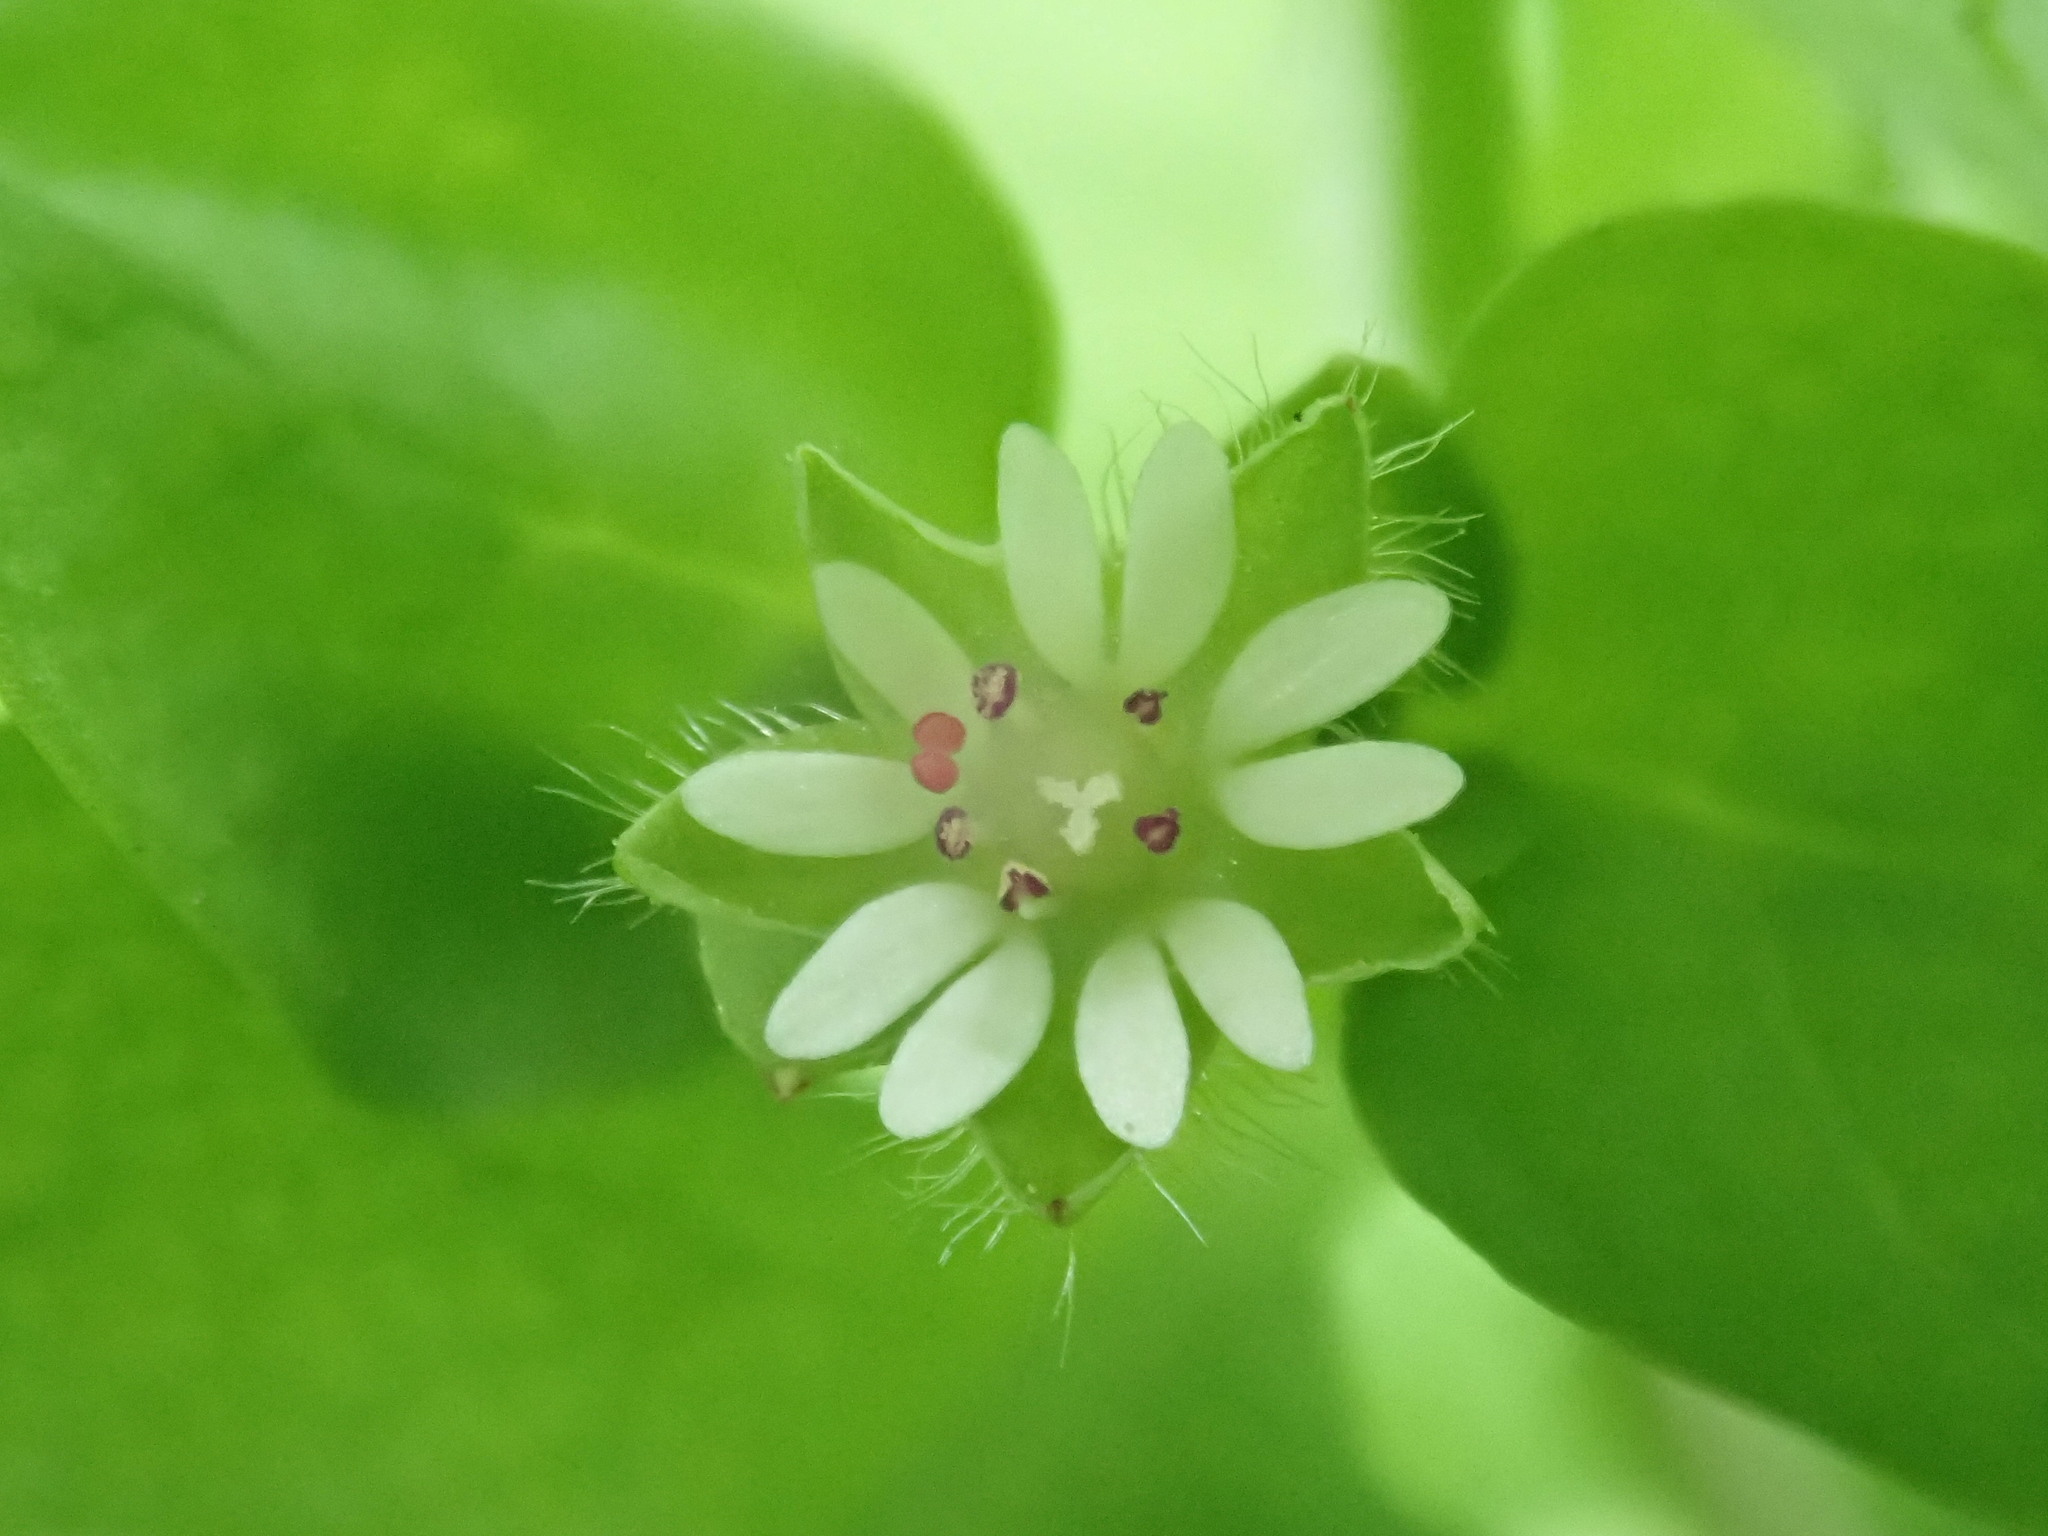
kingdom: Plantae
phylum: Tracheophyta
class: Magnoliopsida
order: Caryophyllales
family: Caryophyllaceae
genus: Stellaria
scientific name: Stellaria media
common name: Common chickweed
